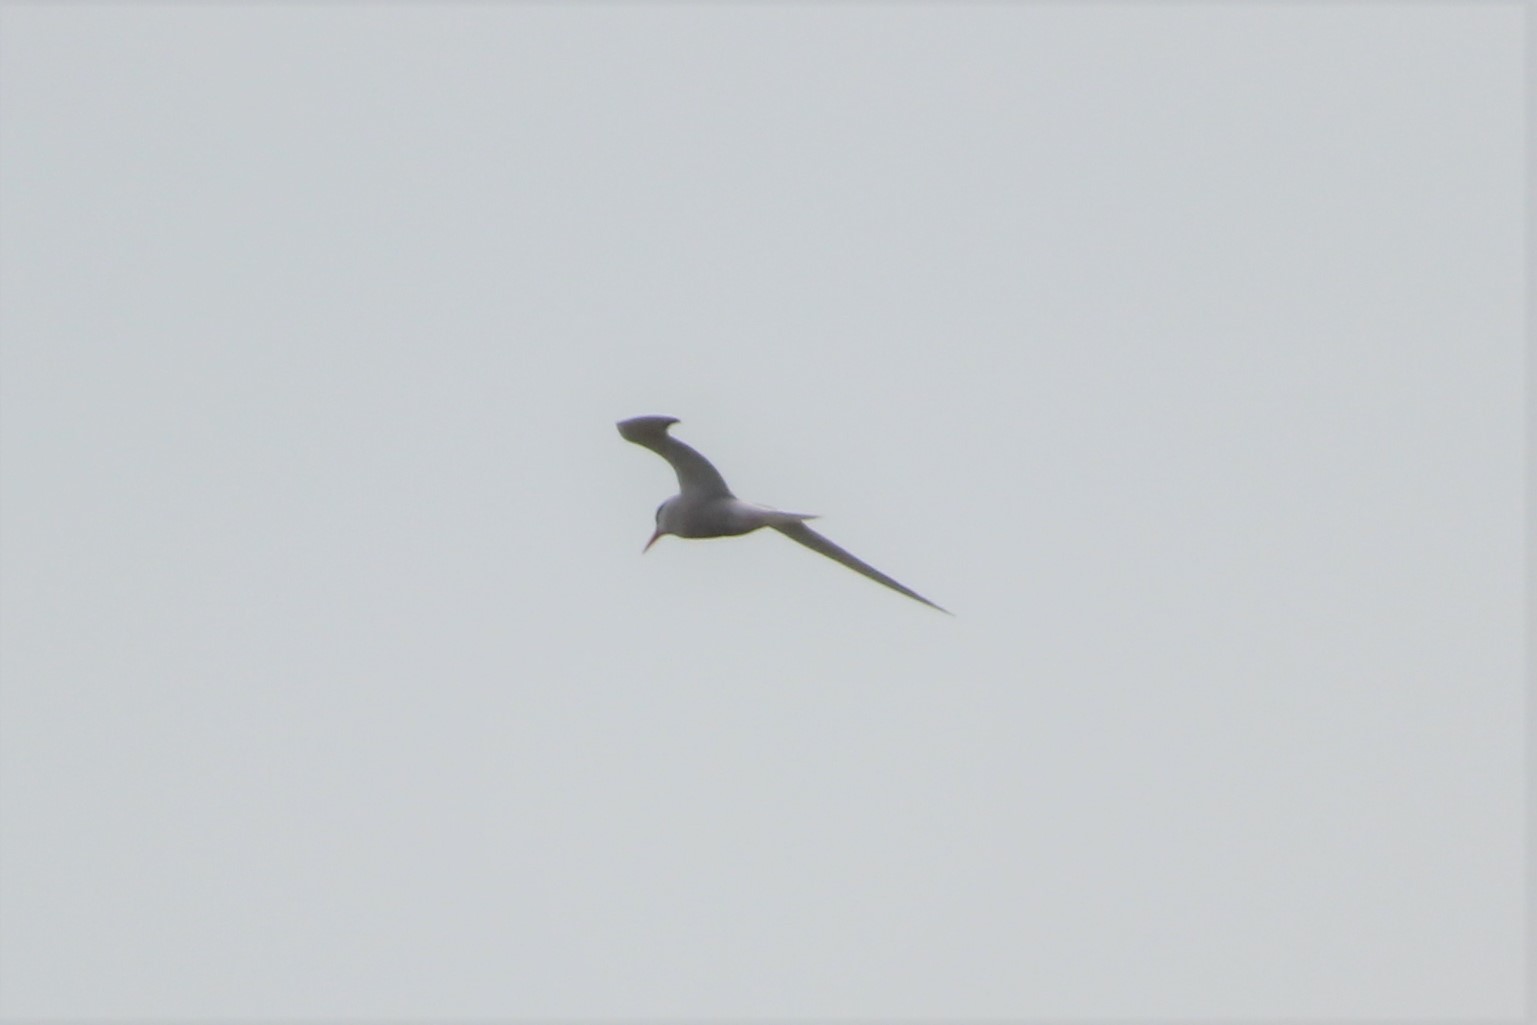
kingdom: Animalia
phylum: Chordata
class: Aves
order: Charadriiformes
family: Laridae
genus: Sterna
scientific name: Sterna hirundo
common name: Common tern
